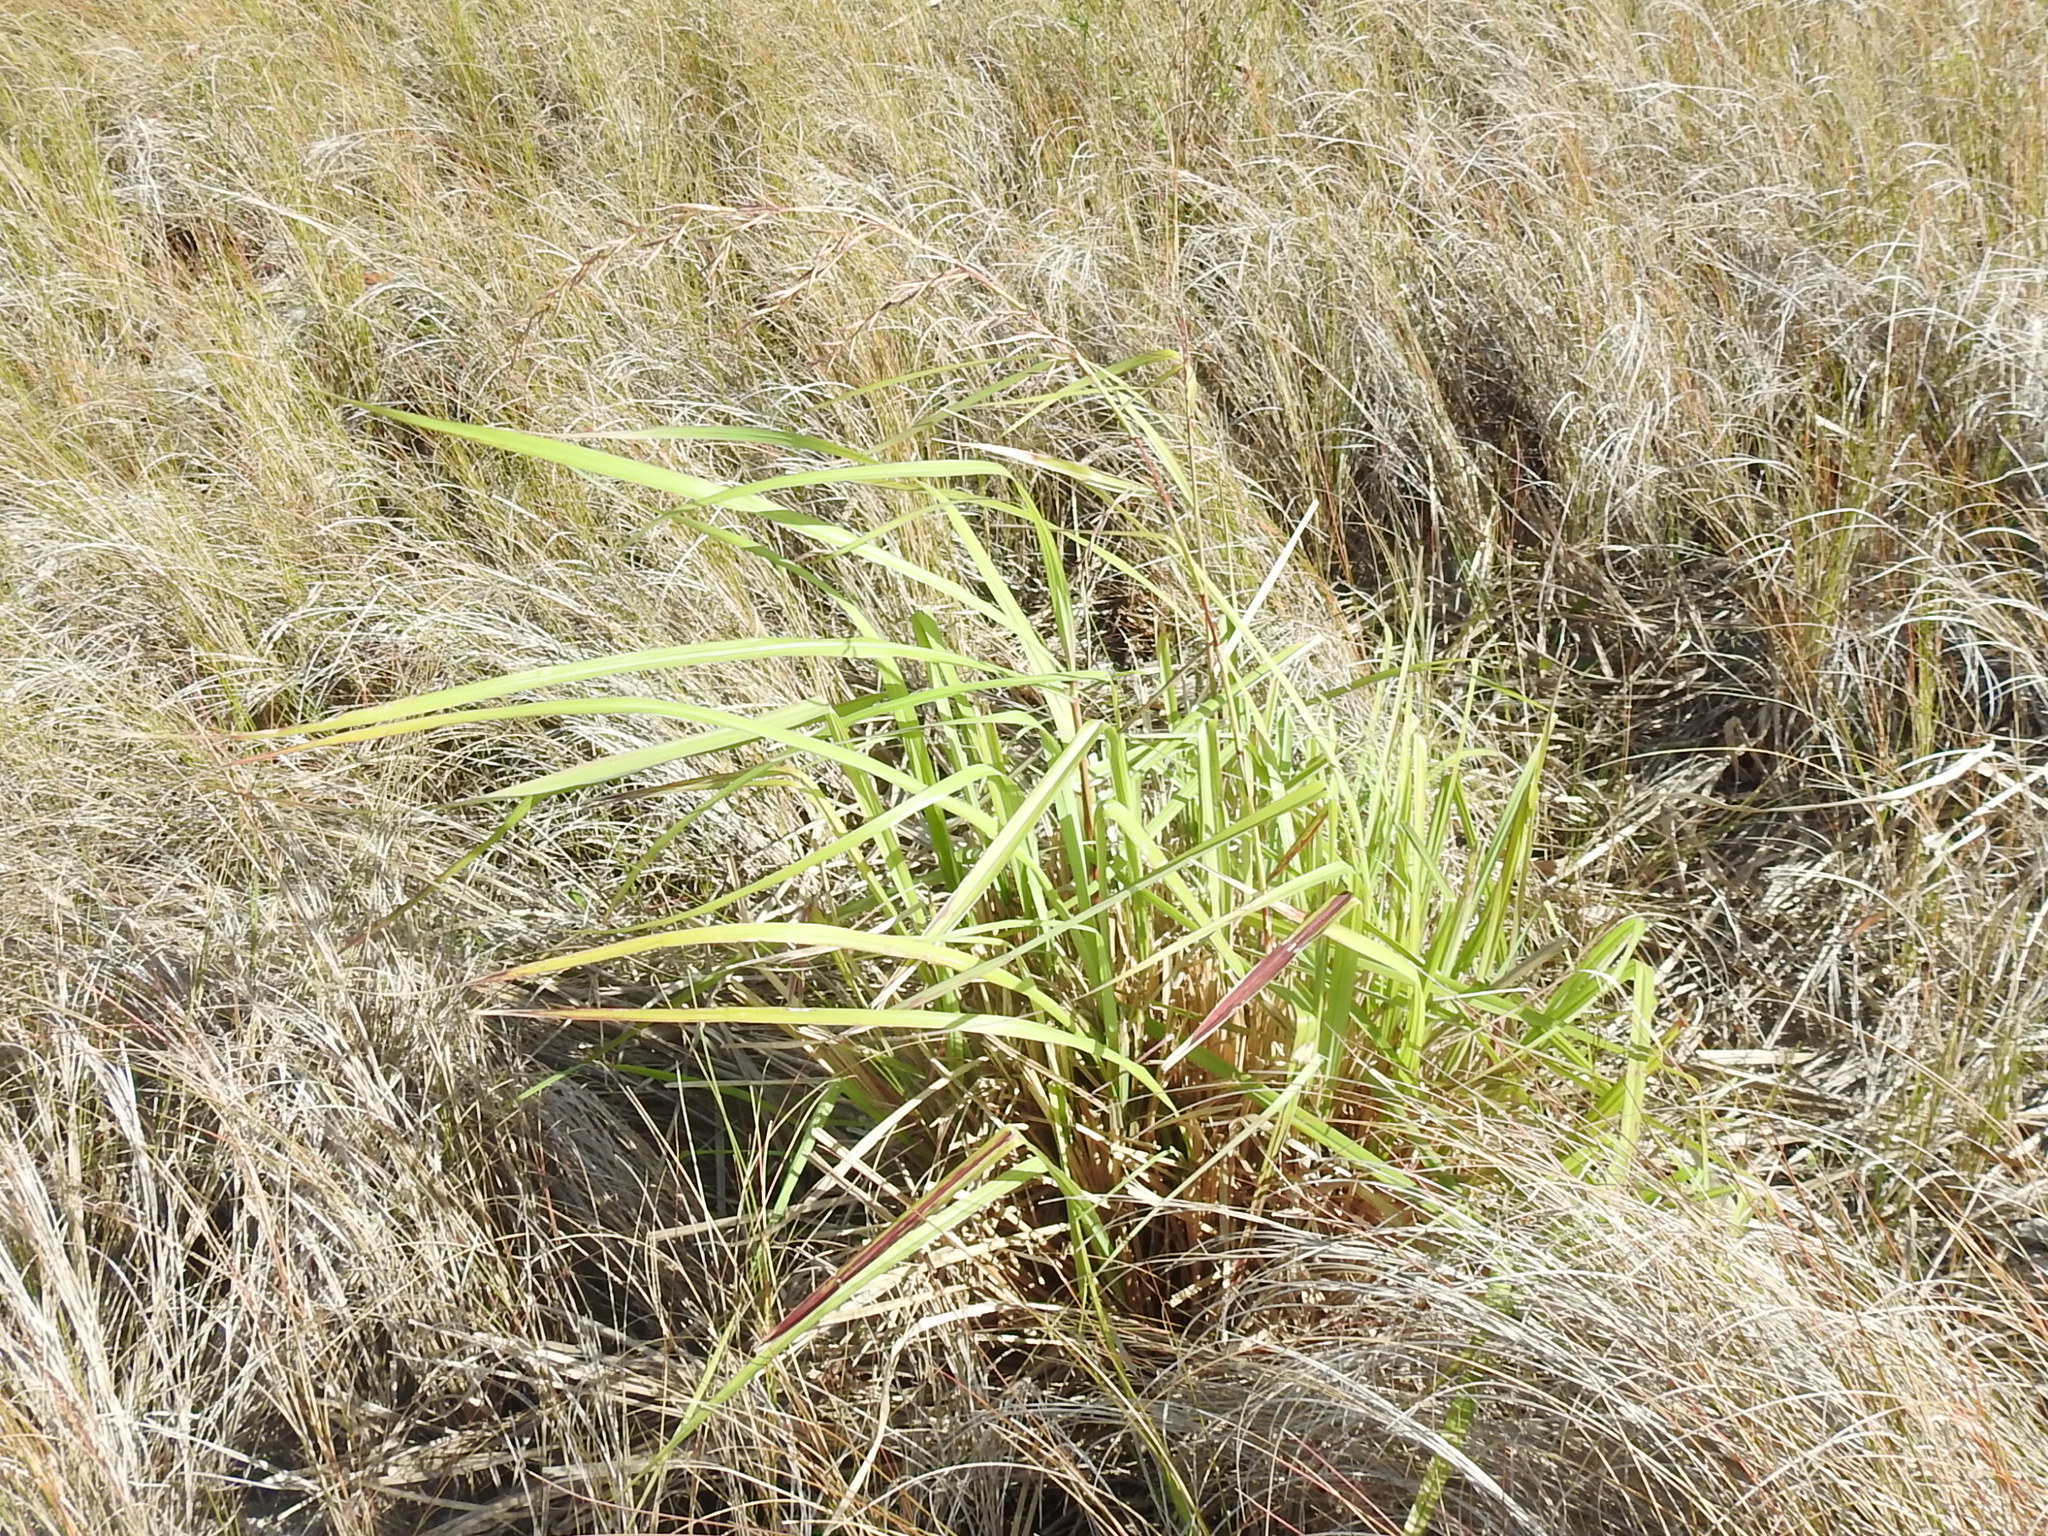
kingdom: Plantae
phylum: Tracheophyta
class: Liliopsida
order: Poales
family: Poaceae
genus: Cymbopogon
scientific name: Cymbopogon citratus
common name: Lemon grass
